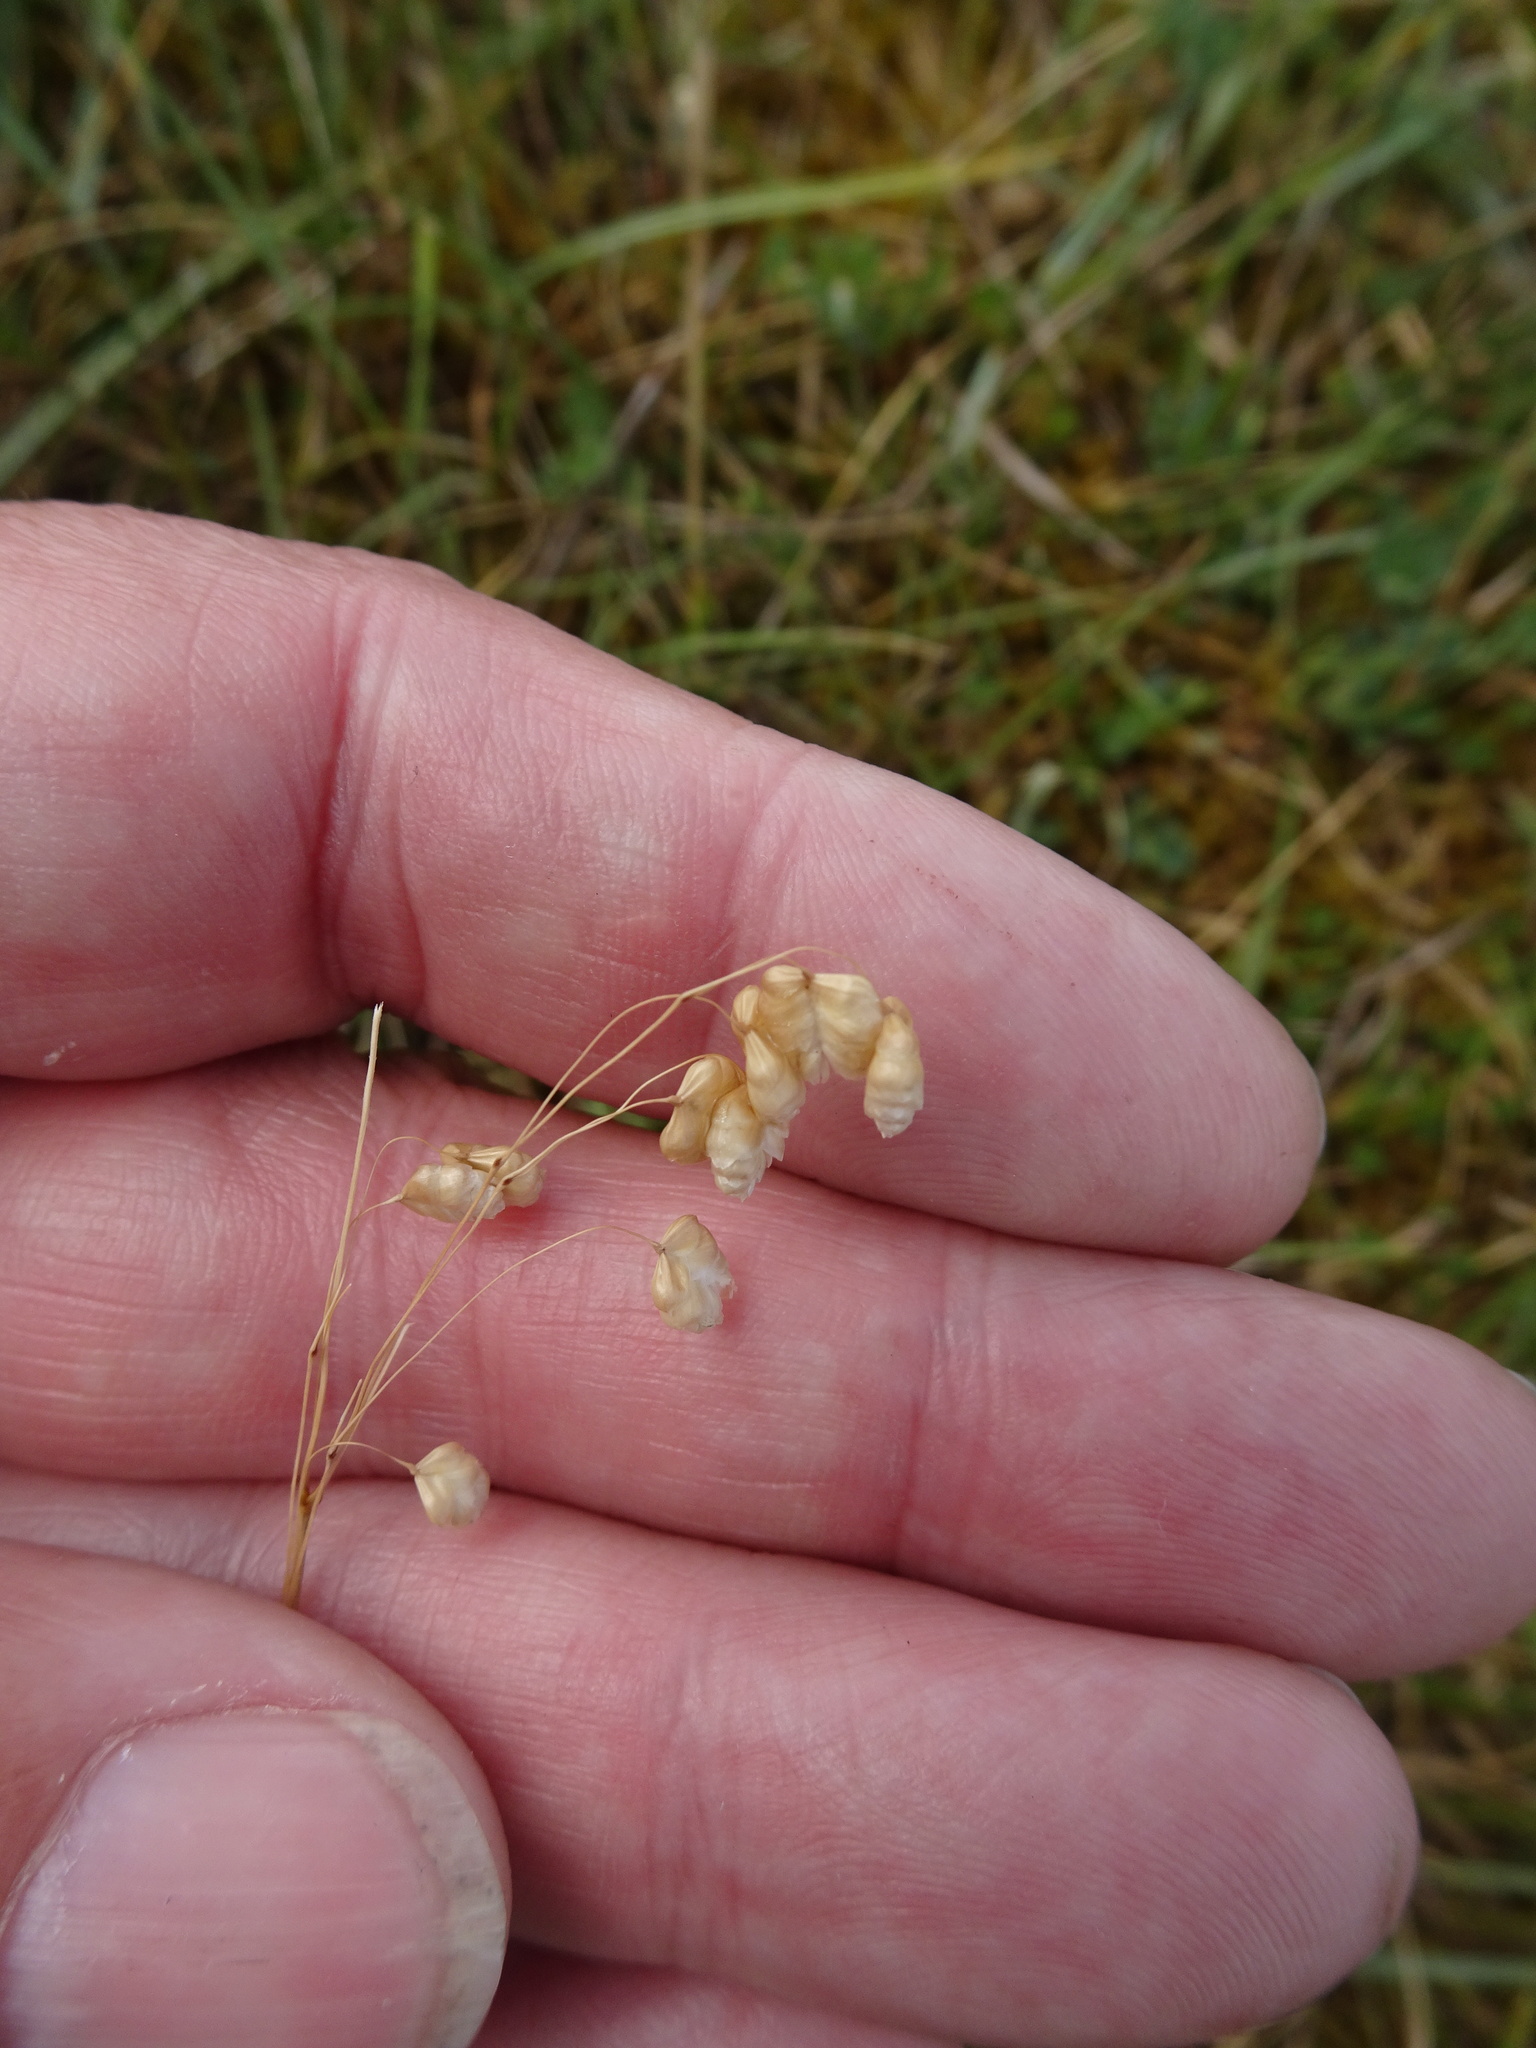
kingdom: Plantae
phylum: Tracheophyta
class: Liliopsida
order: Poales
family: Poaceae
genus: Briza
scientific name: Briza media
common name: Quaking grass
